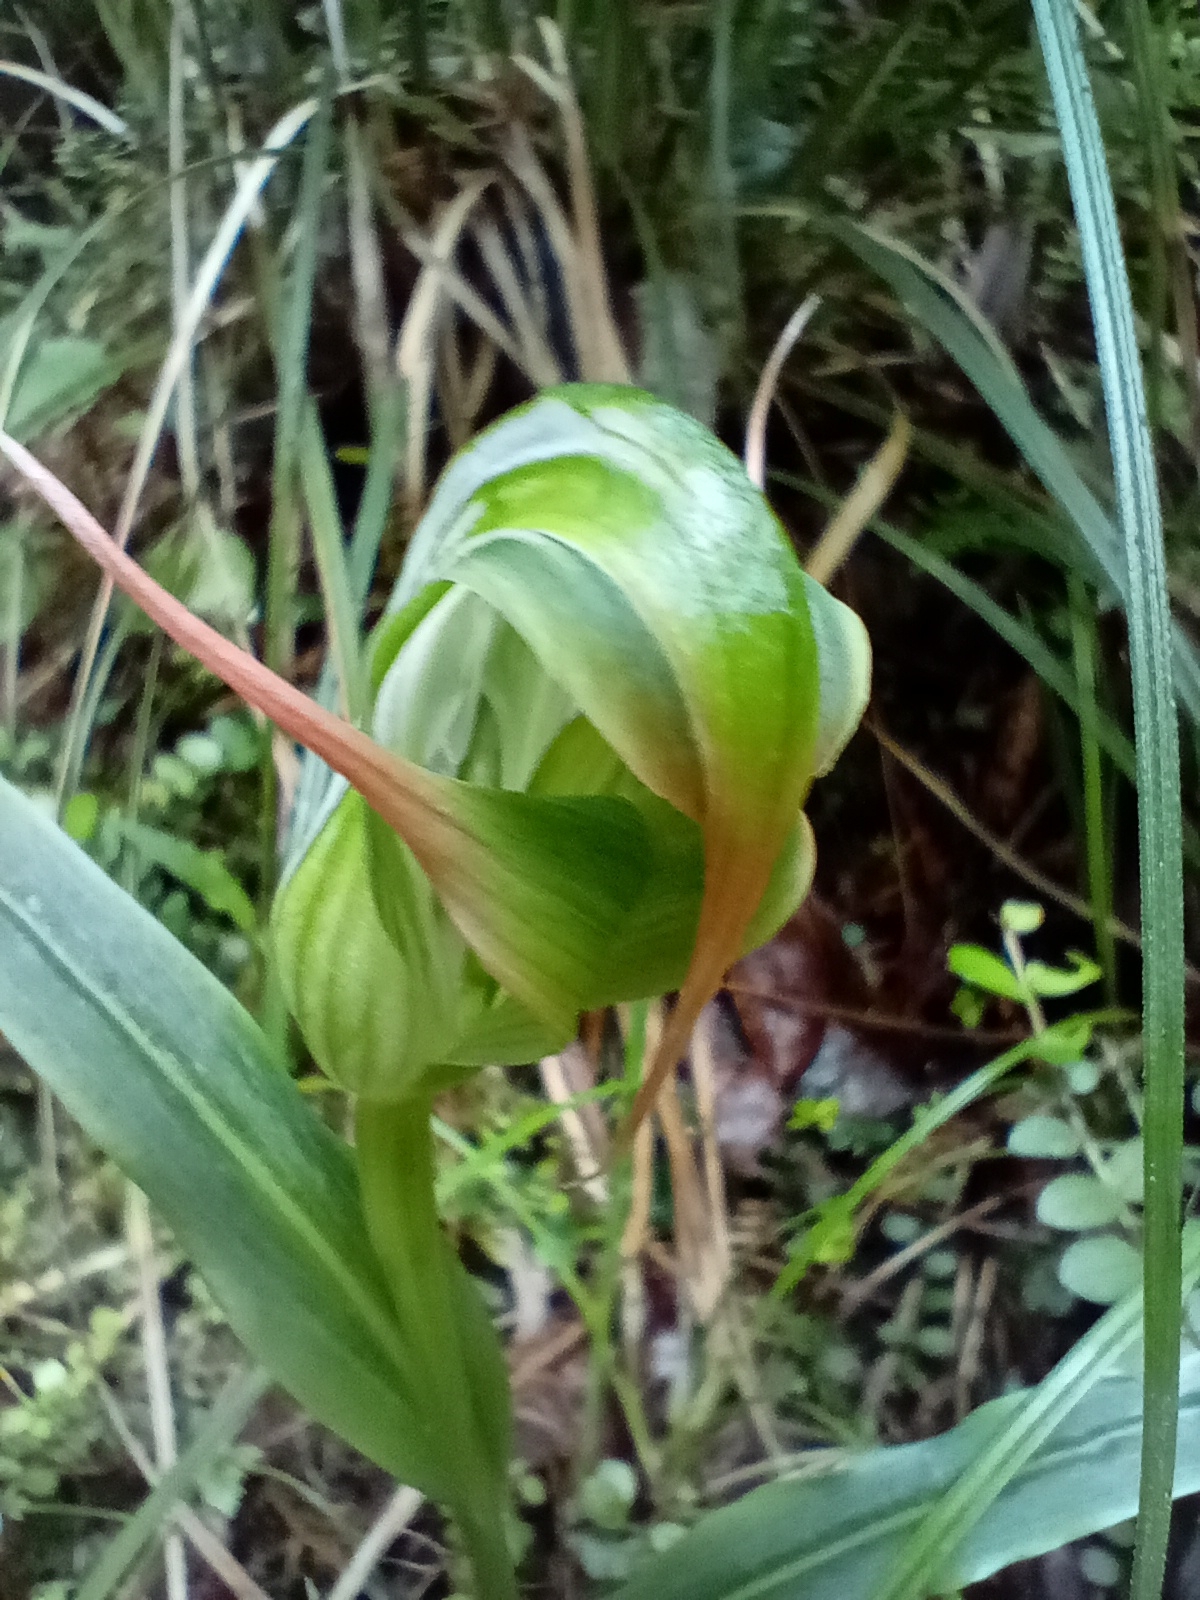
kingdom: Plantae
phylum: Tracheophyta
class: Liliopsida
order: Asparagales
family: Orchidaceae
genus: Pterostylis
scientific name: Pterostylis patens
